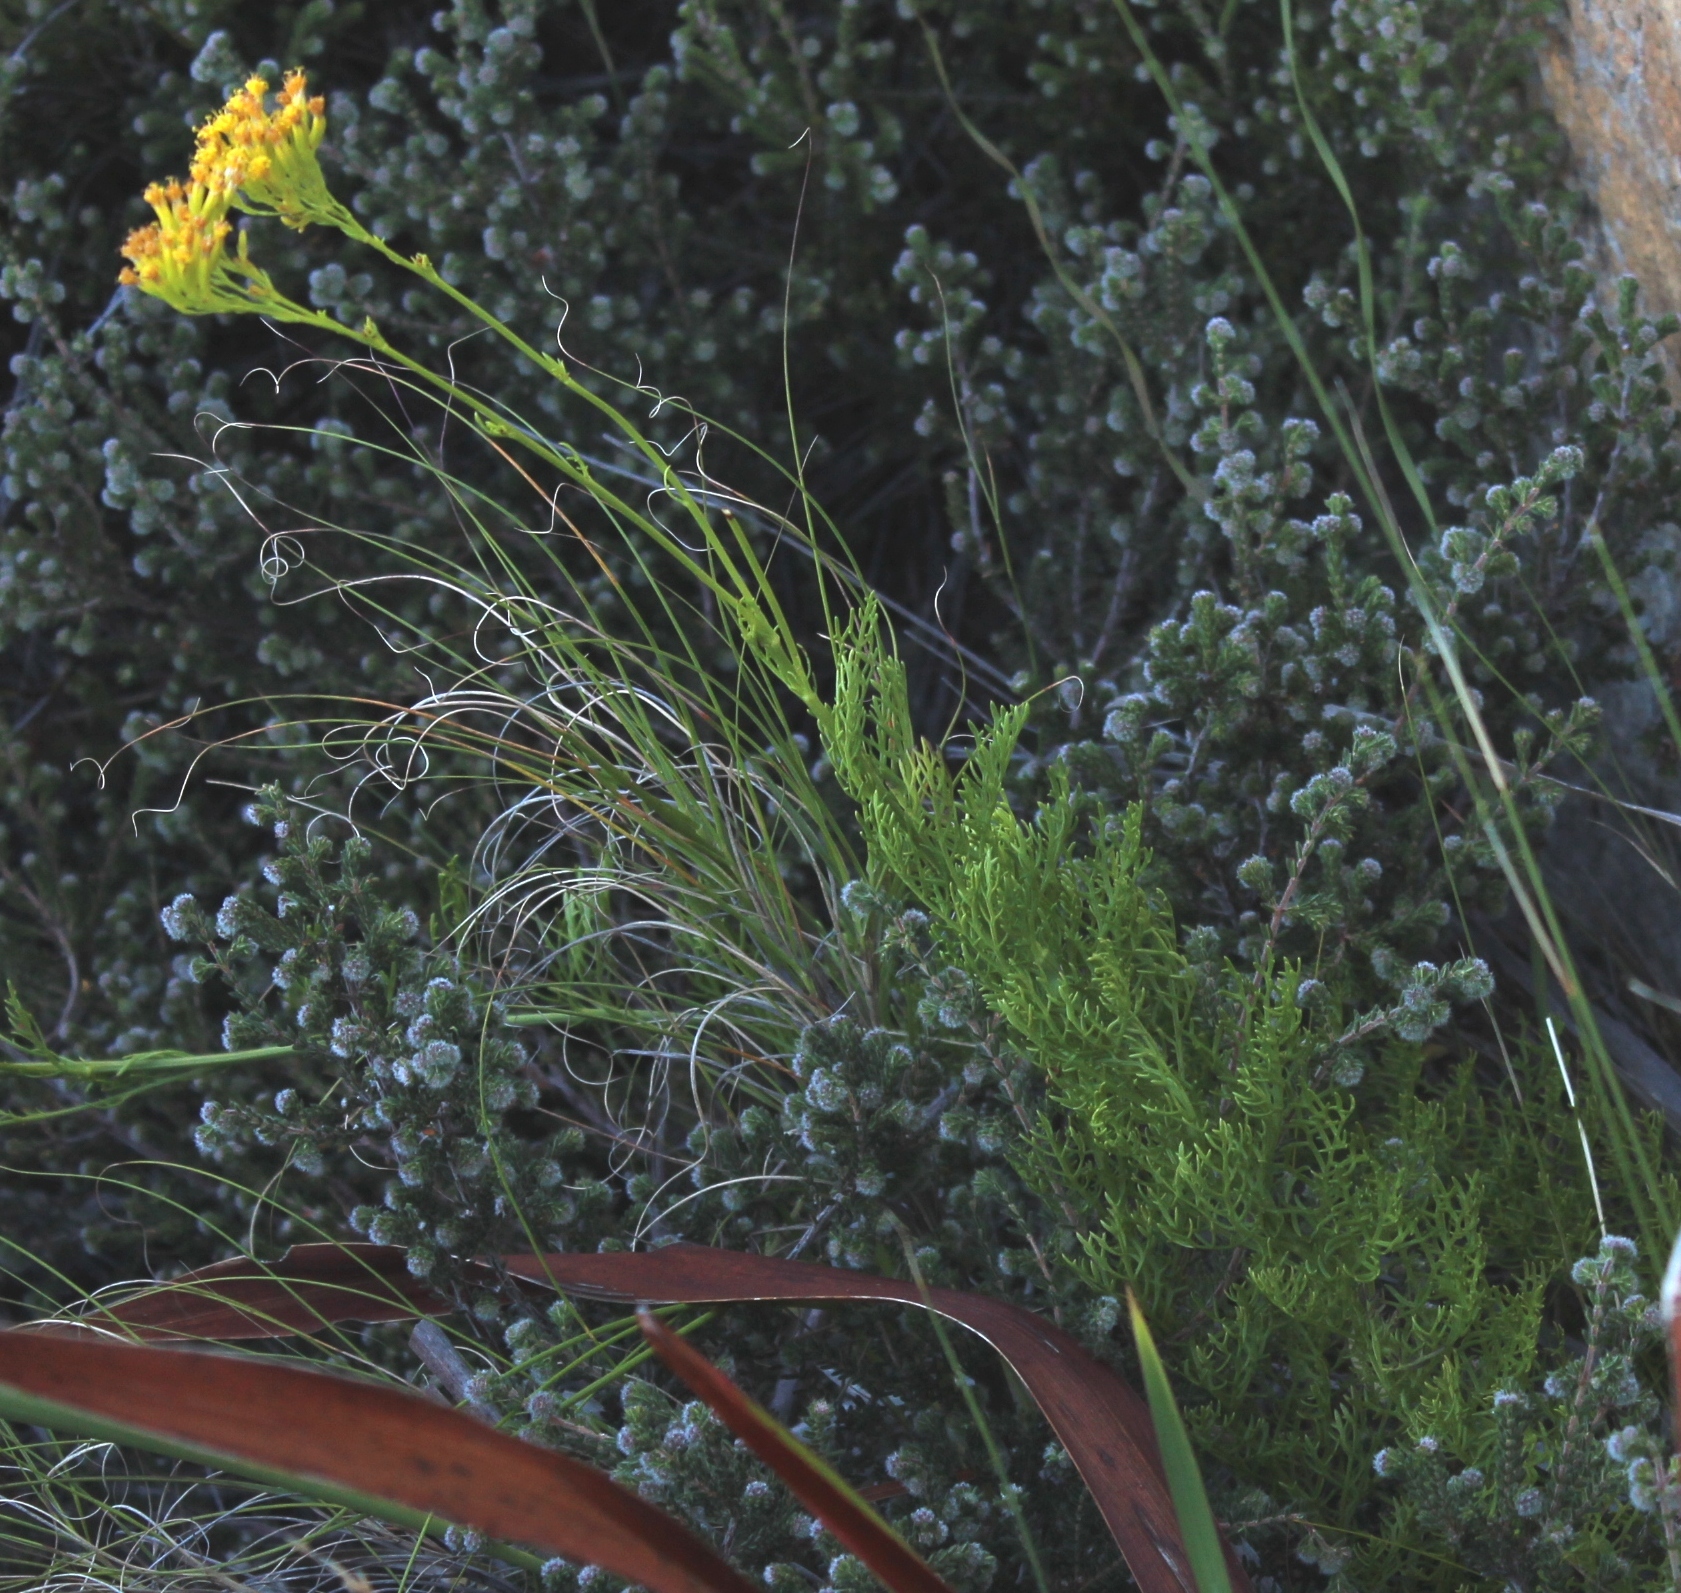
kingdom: Plantae
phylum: Tracheophyta
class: Magnoliopsida
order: Asterales
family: Asteraceae
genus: Senecio
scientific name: Senecio bipinnatus
